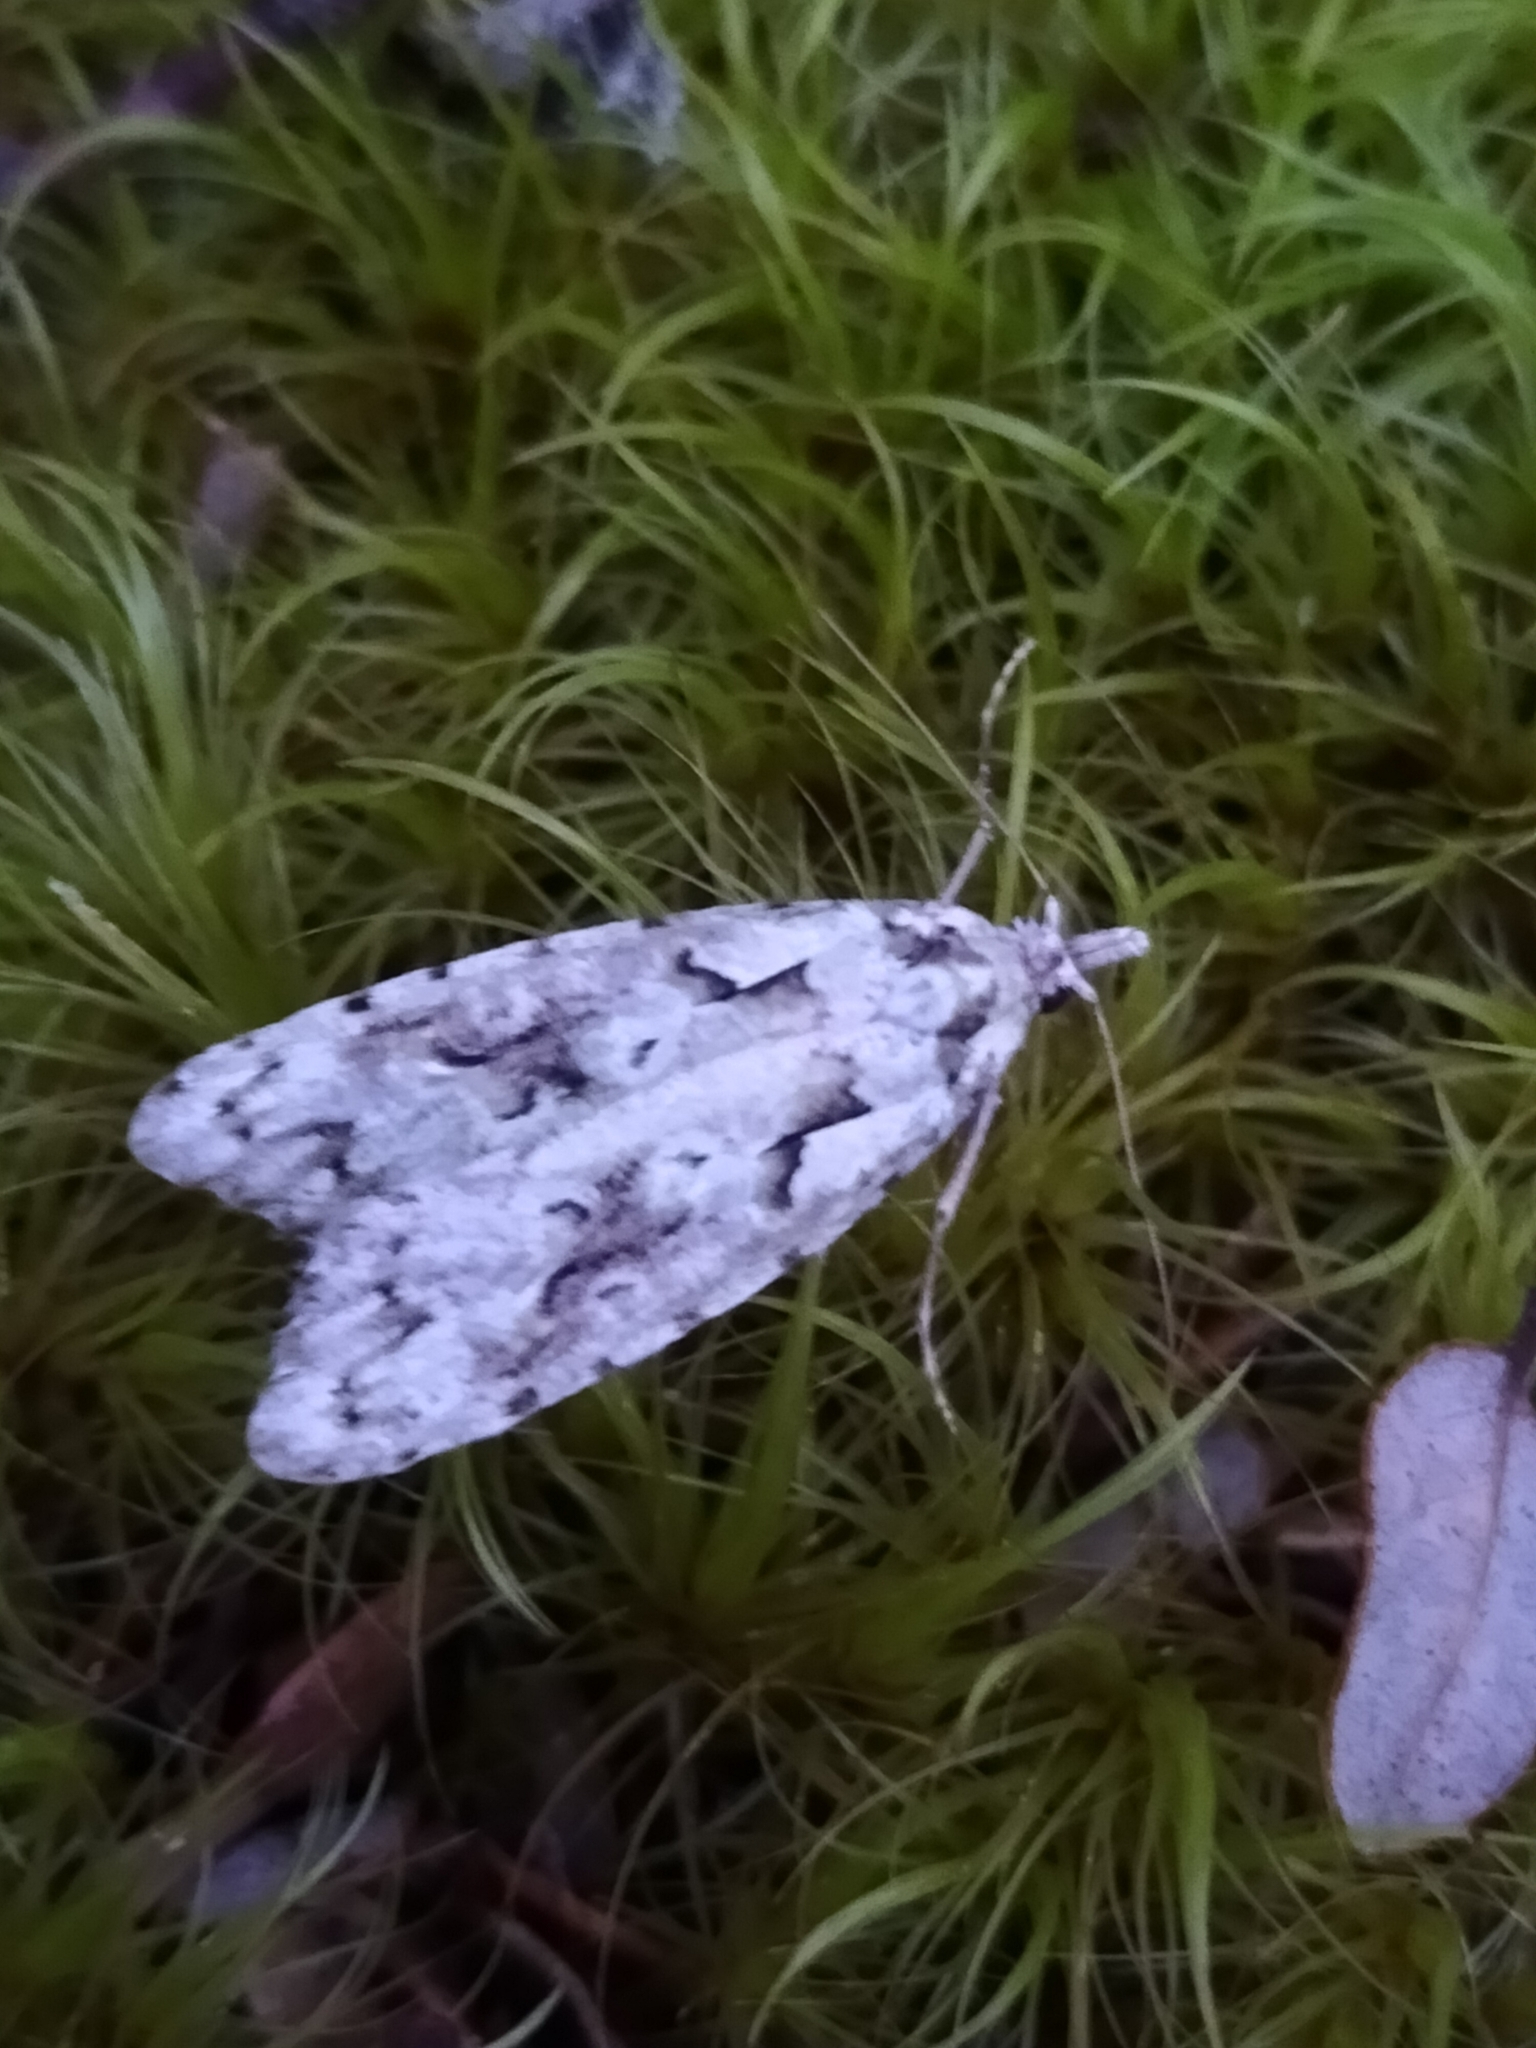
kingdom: Animalia
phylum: Arthropoda
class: Insecta
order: Lepidoptera
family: Carposinidae
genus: Carposina
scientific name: Carposina Heterocrossa eriphylla
